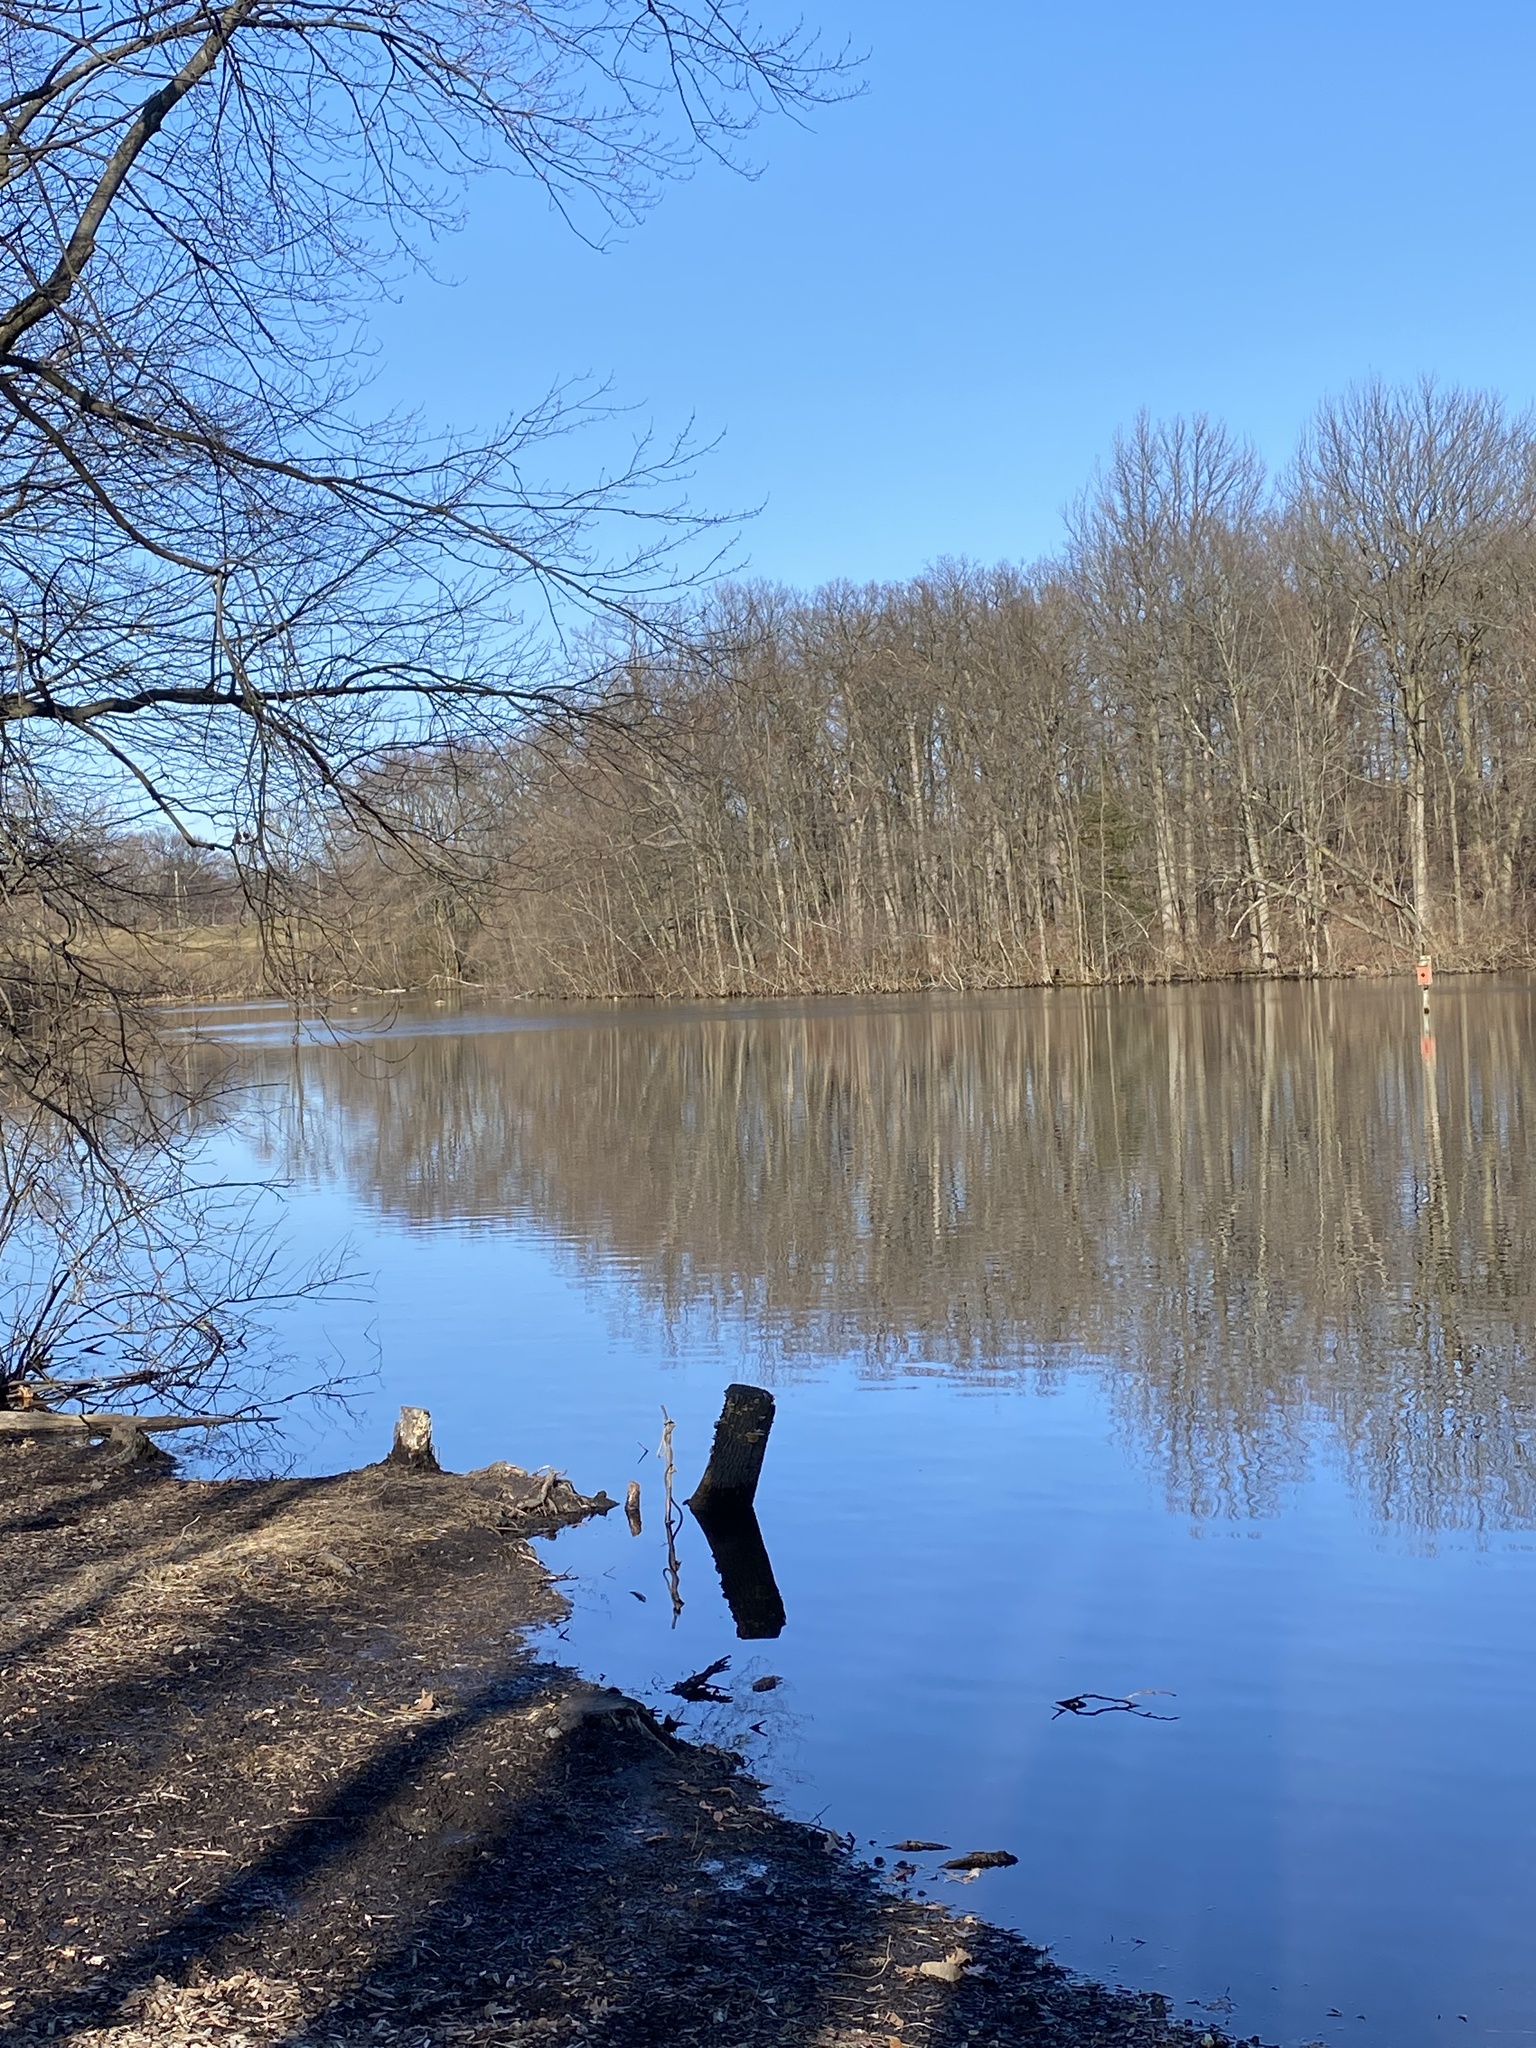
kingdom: Animalia
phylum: Chordata
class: Aves
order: Anseriformes
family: Anatidae
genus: Anas
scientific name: Anas platyrhynchos
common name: Mallard
